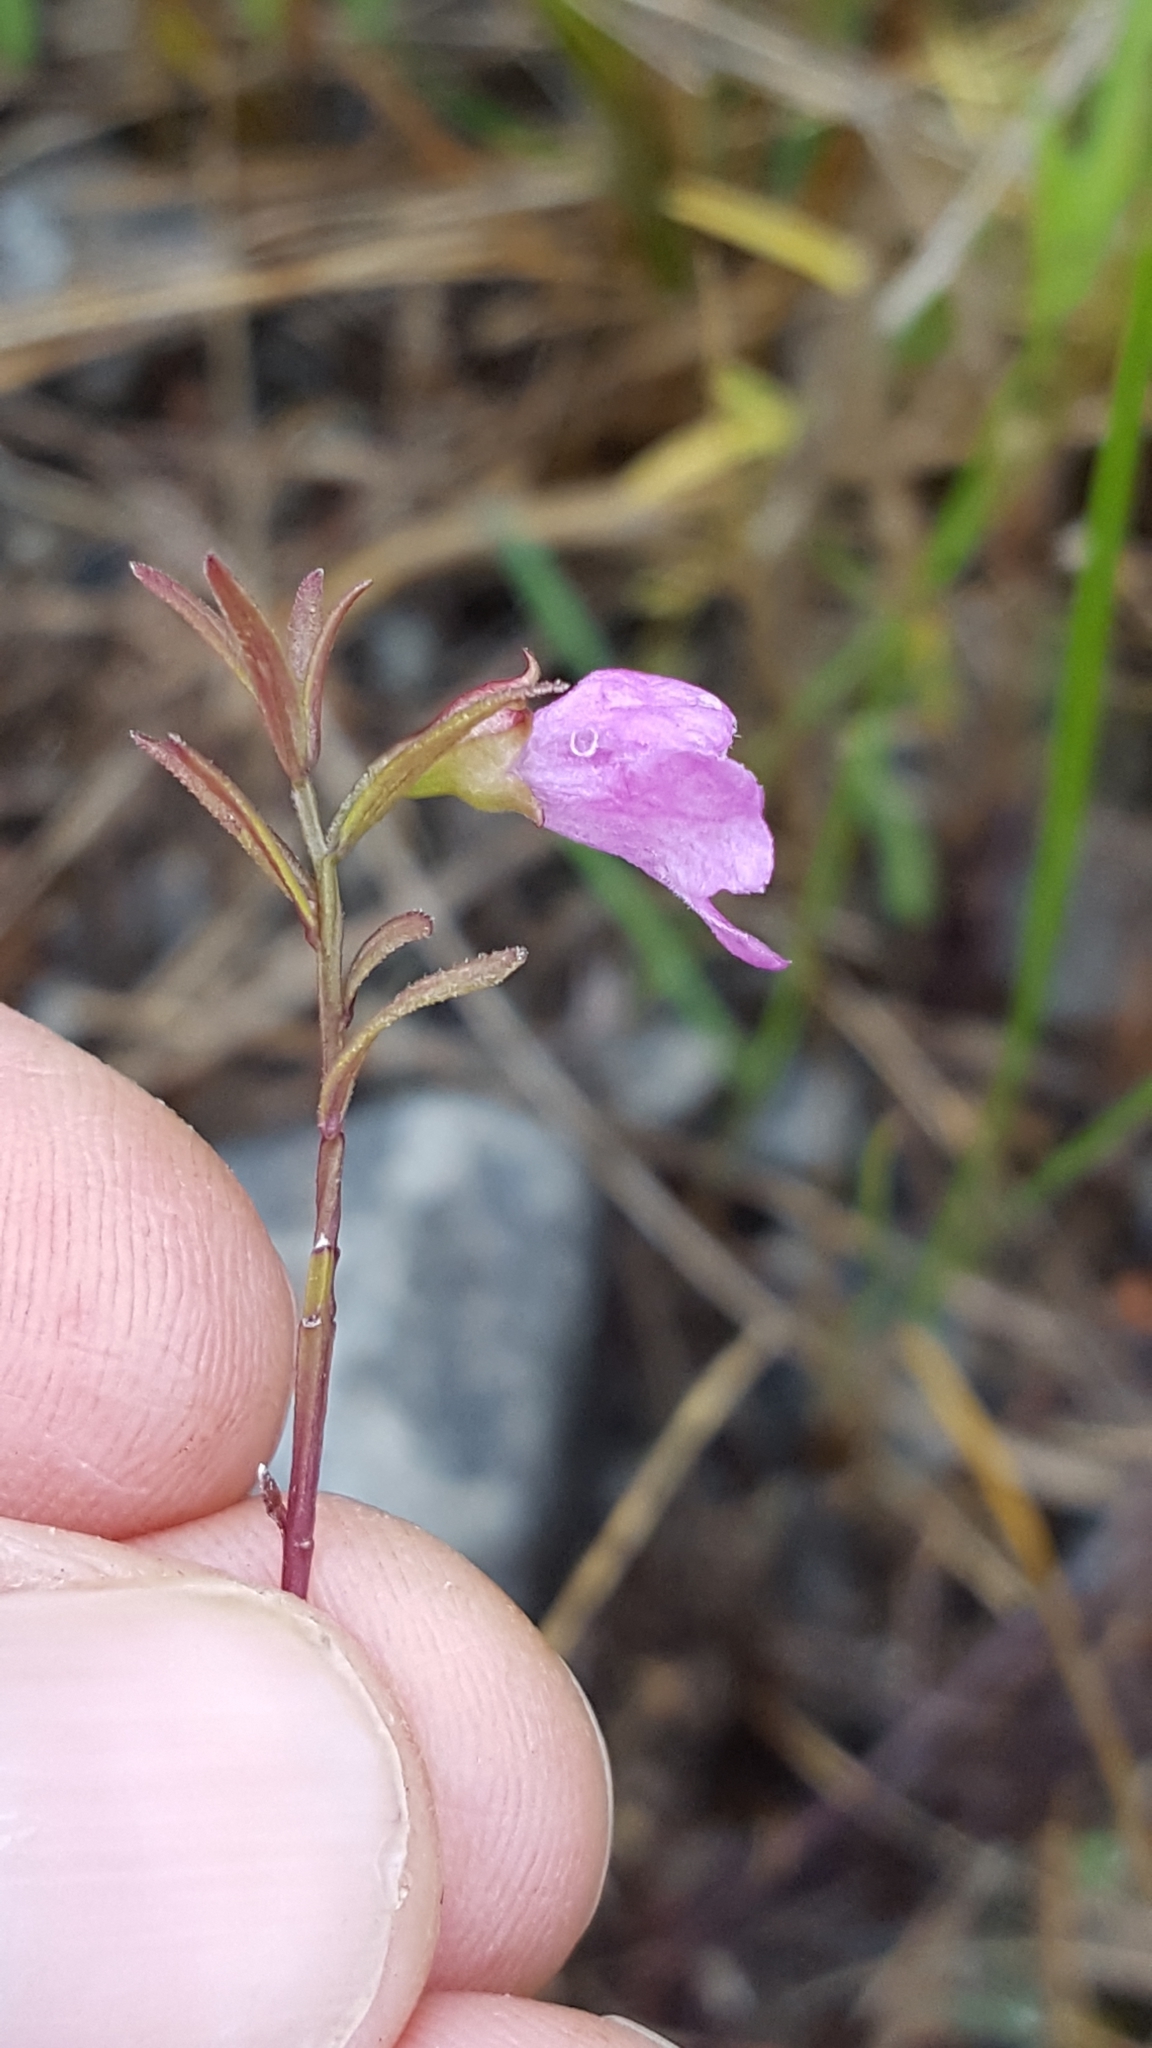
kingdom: Plantae
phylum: Tracheophyta
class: Magnoliopsida
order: Lamiales
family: Orobanchaceae
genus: Agalinis
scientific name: Agalinis tenuifolia
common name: Slender agalinis
